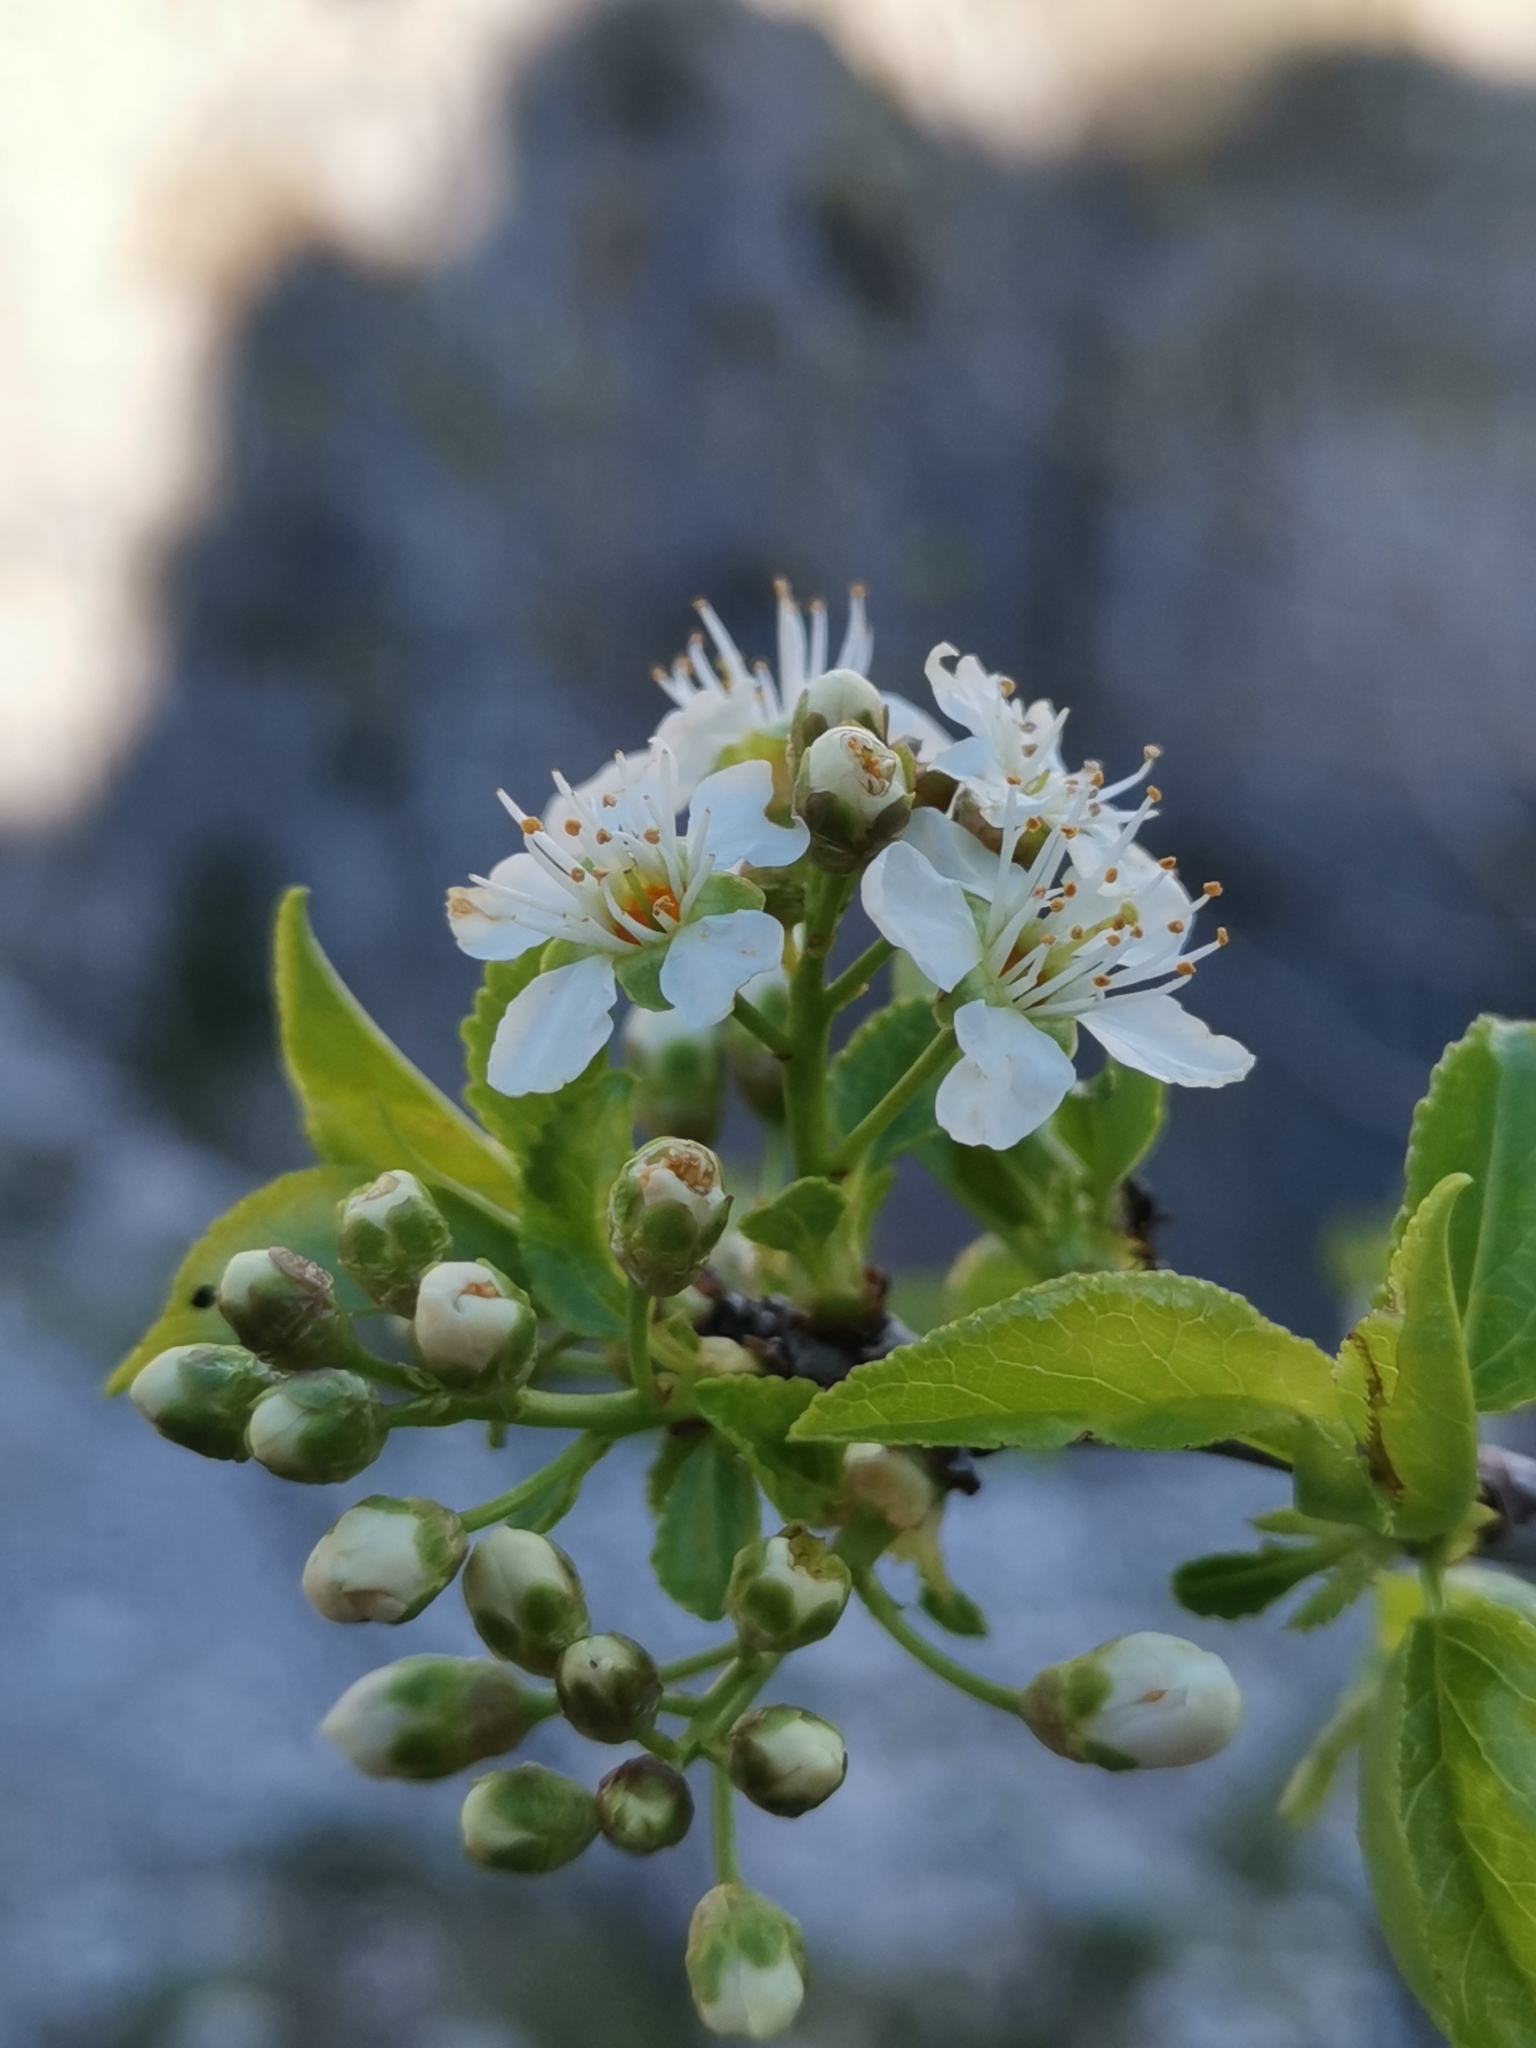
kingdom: Plantae
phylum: Tracheophyta
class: Magnoliopsida
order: Rosales
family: Rosaceae
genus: Prunus
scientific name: Prunus mahaleb
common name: Mahaleb cherry
